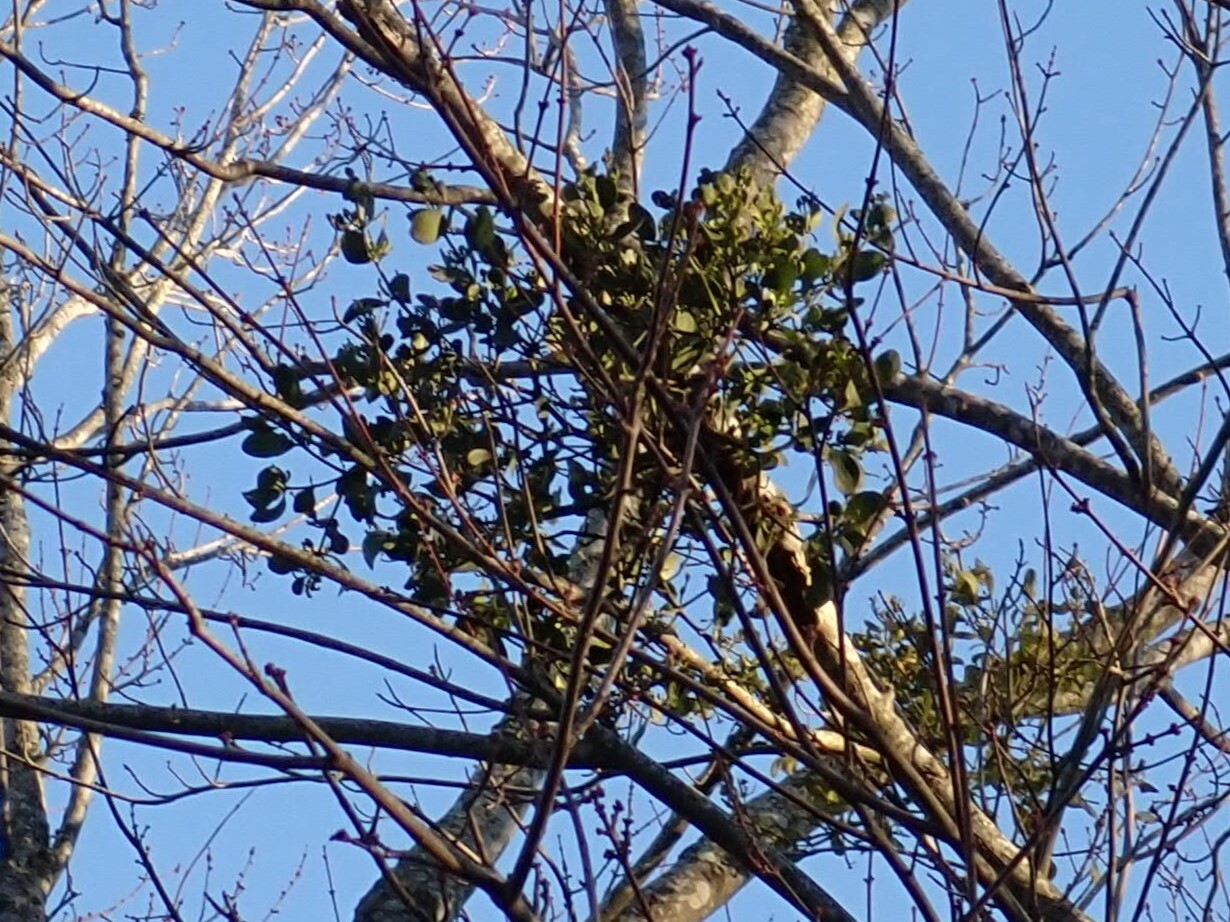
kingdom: Plantae
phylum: Tracheophyta
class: Magnoliopsida
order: Santalales
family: Viscaceae
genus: Phoradendron
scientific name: Phoradendron leucarpum
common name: Pacific mistletoe
